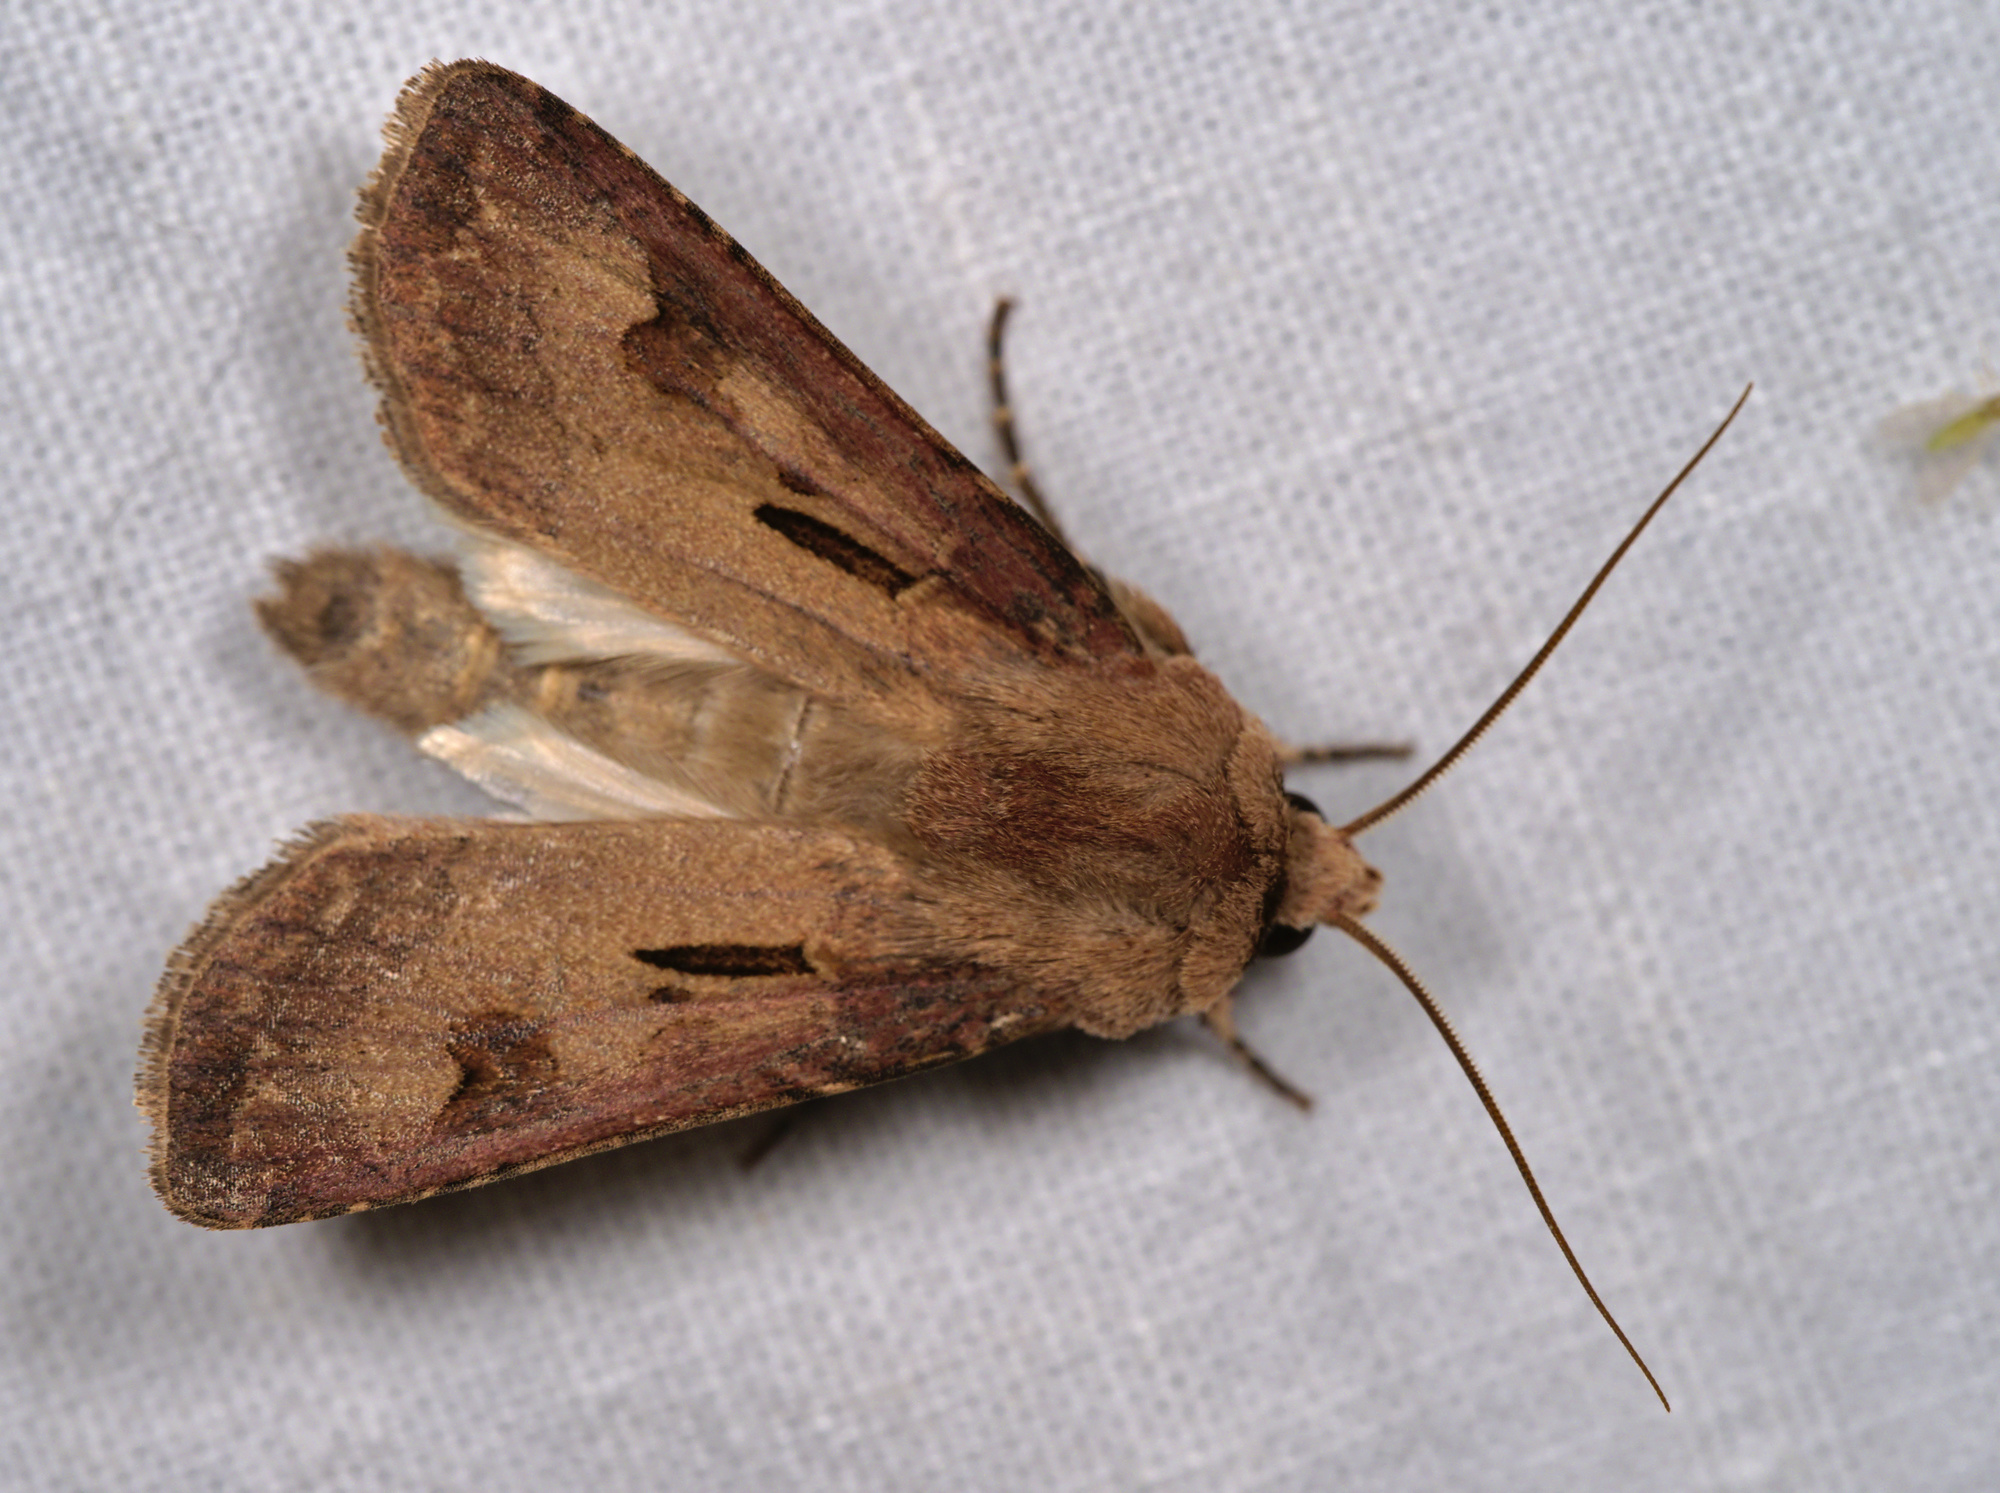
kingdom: Animalia
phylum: Arthropoda
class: Insecta
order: Lepidoptera
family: Noctuidae
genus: Agrotis
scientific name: Agrotis exclamationis
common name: Heart and dart
